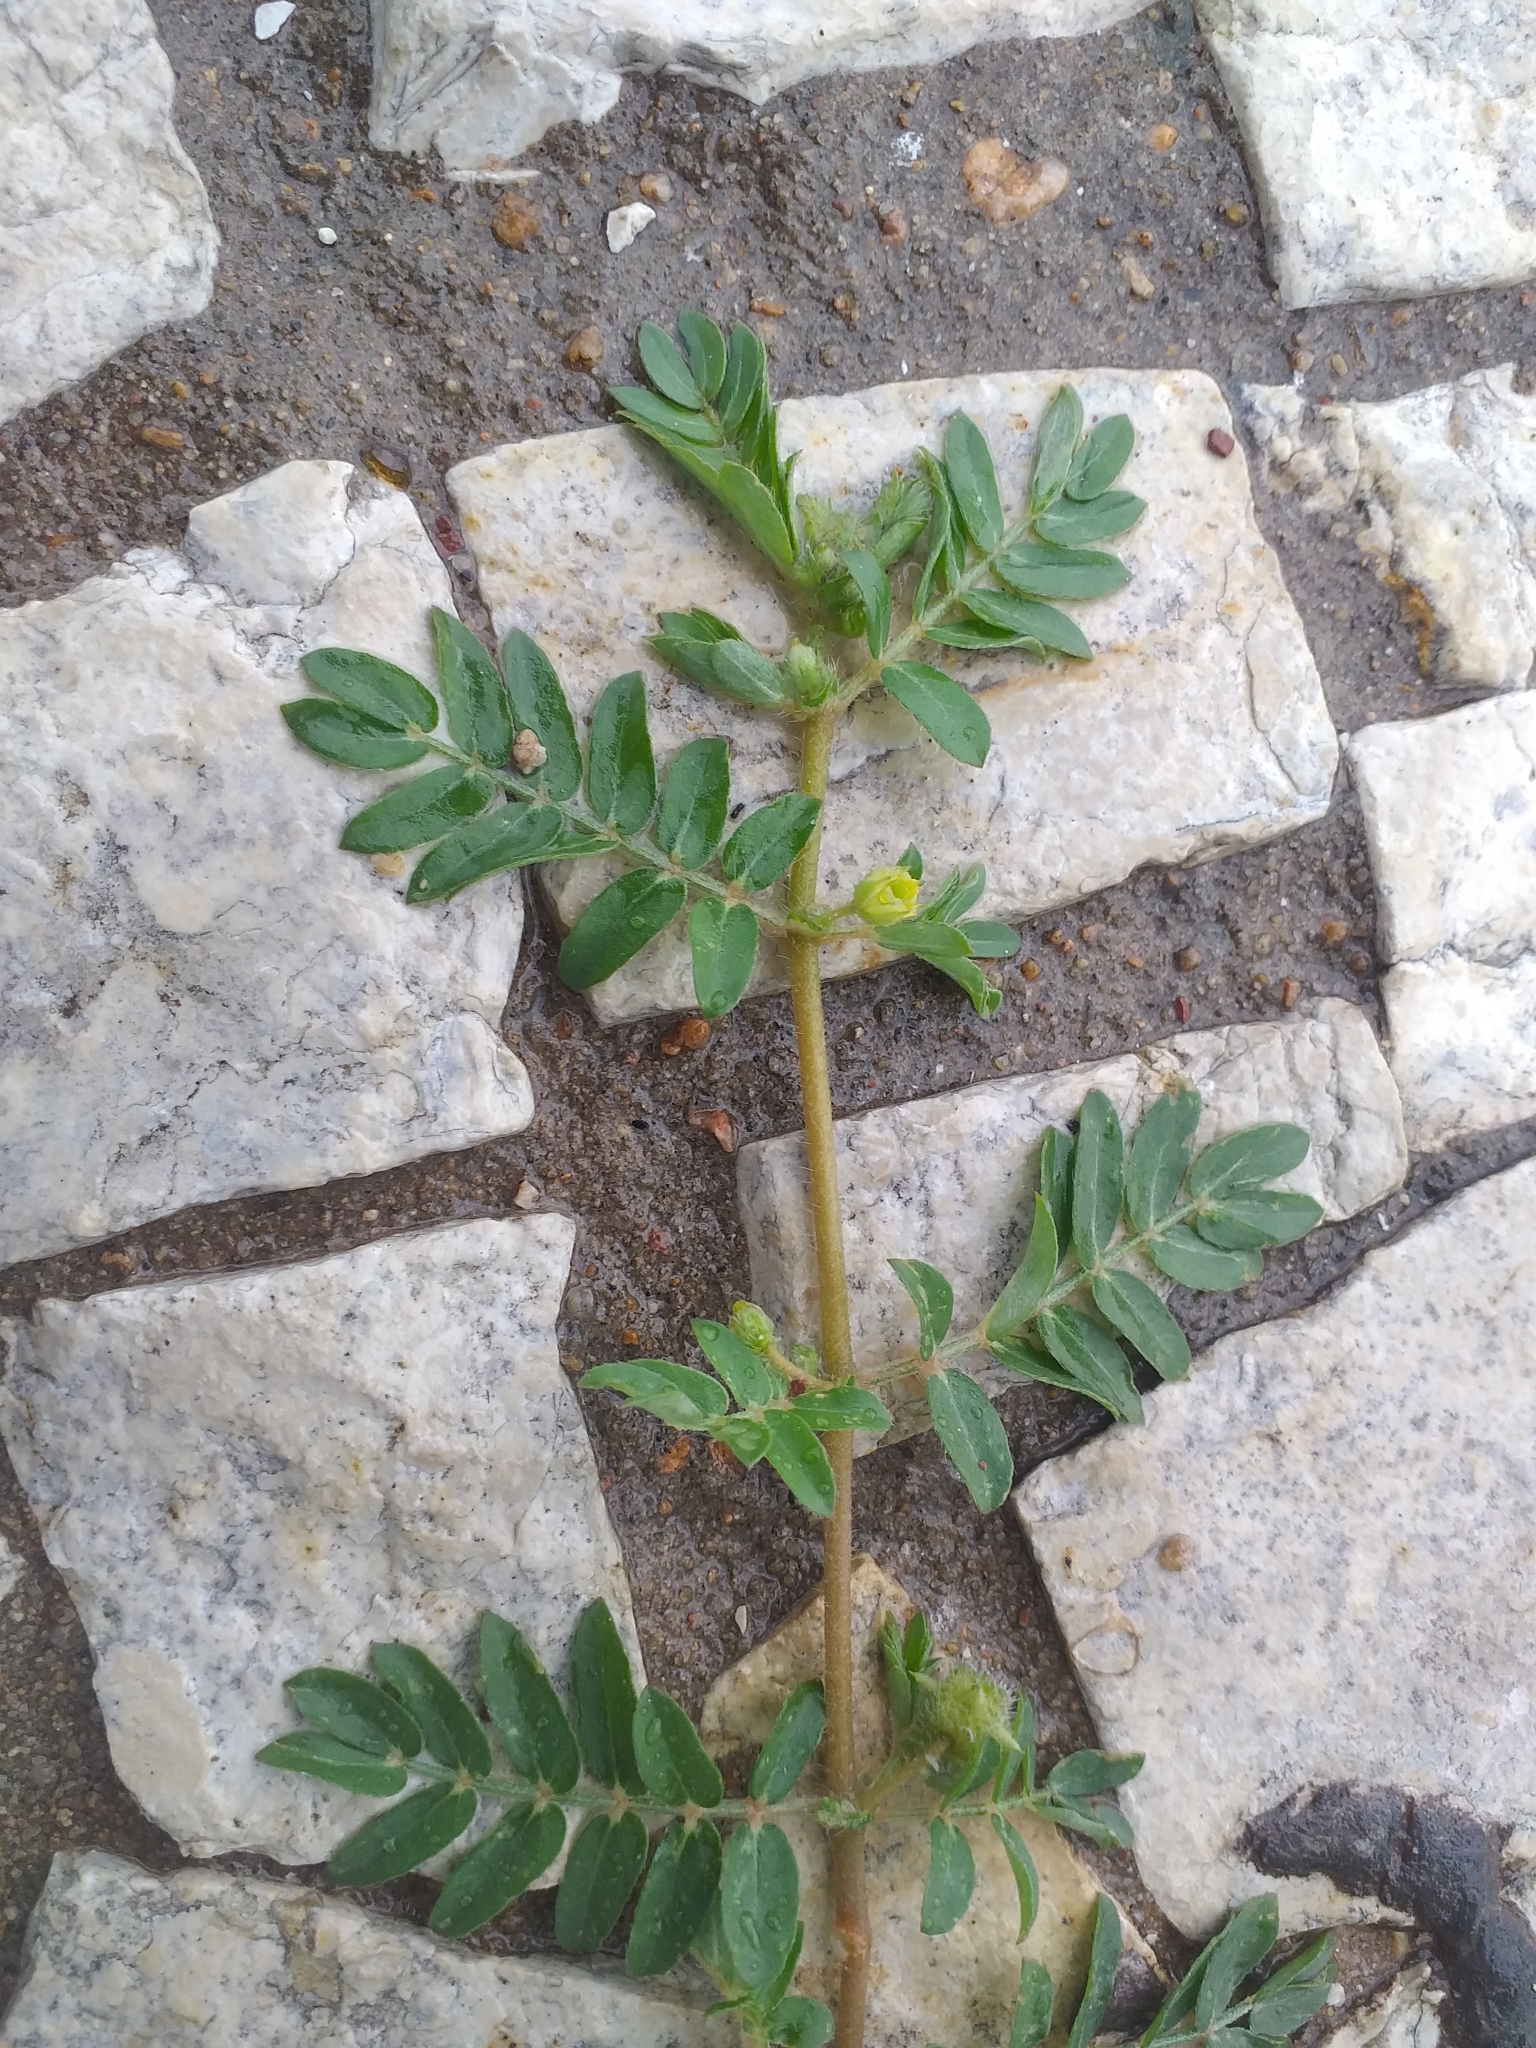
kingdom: Plantae
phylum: Tracheophyta
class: Magnoliopsida
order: Zygophyllales
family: Zygophyllaceae
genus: Tribulus
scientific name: Tribulus terrestris
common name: Puncturevine
